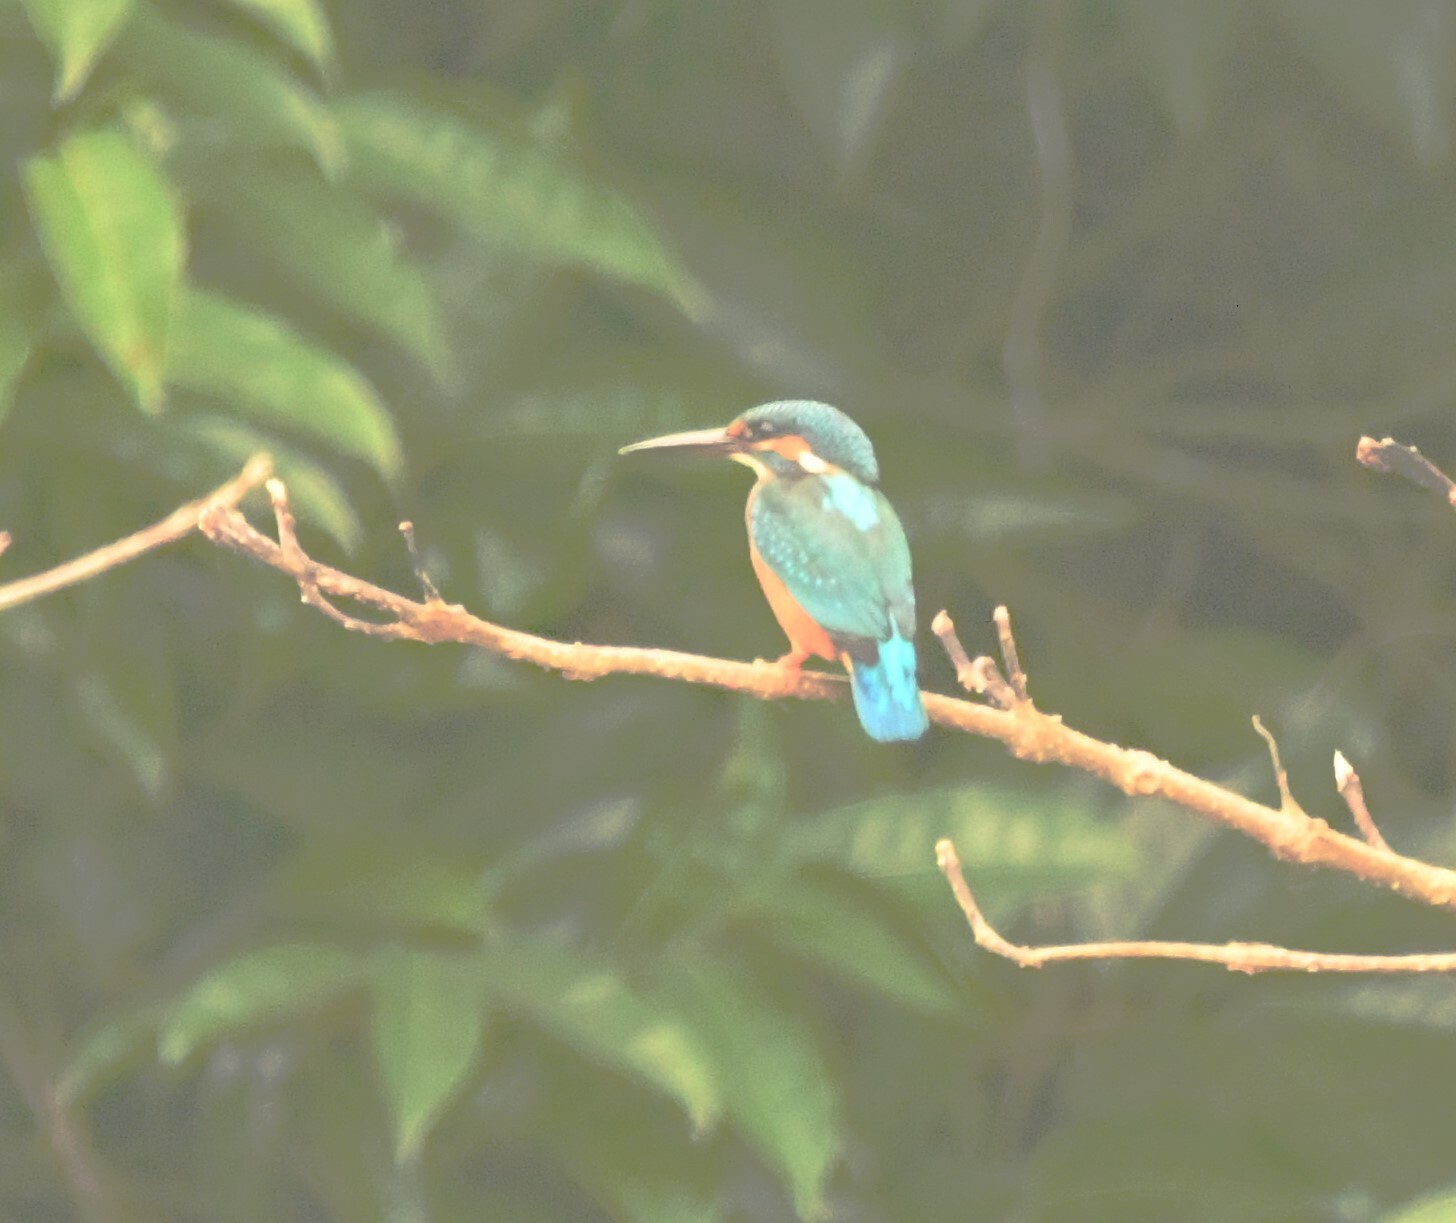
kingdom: Animalia
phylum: Chordata
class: Aves
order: Coraciiformes
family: Alcedinidae
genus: Alcedo
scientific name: Alcedo atthis
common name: Common kingfisher
